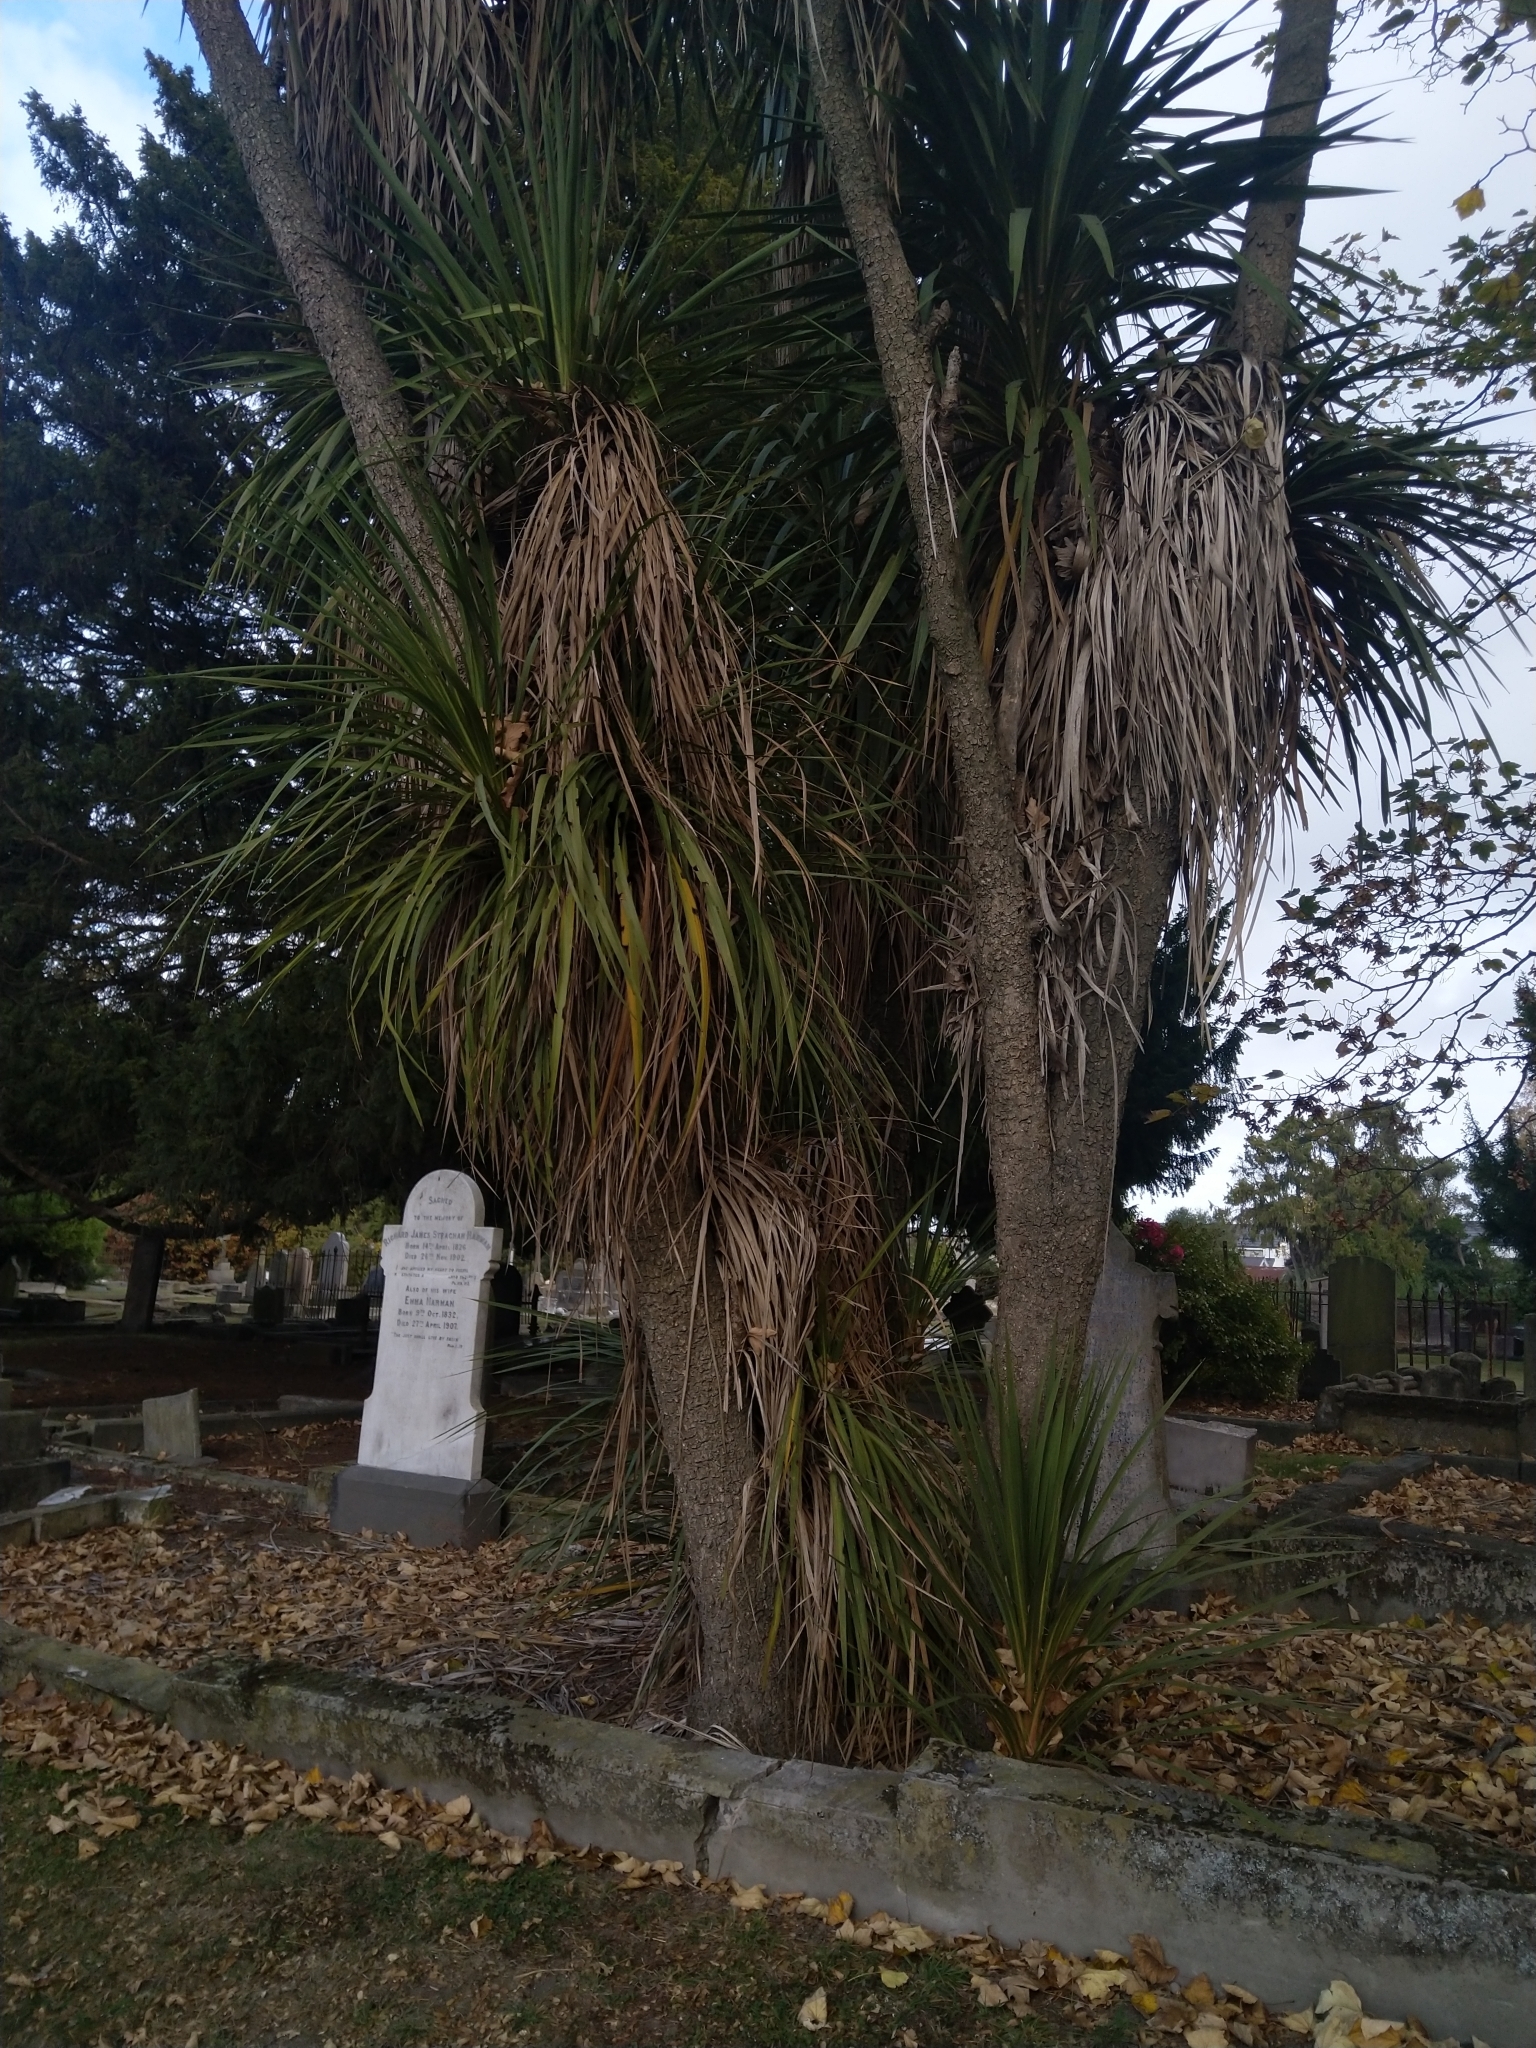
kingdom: Plantae
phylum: Tracheophyta
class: Liliopsida
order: Asparagales
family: Asparagaceae
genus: Cordyline
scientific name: Cordyline australis
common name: Cabbage-palm
